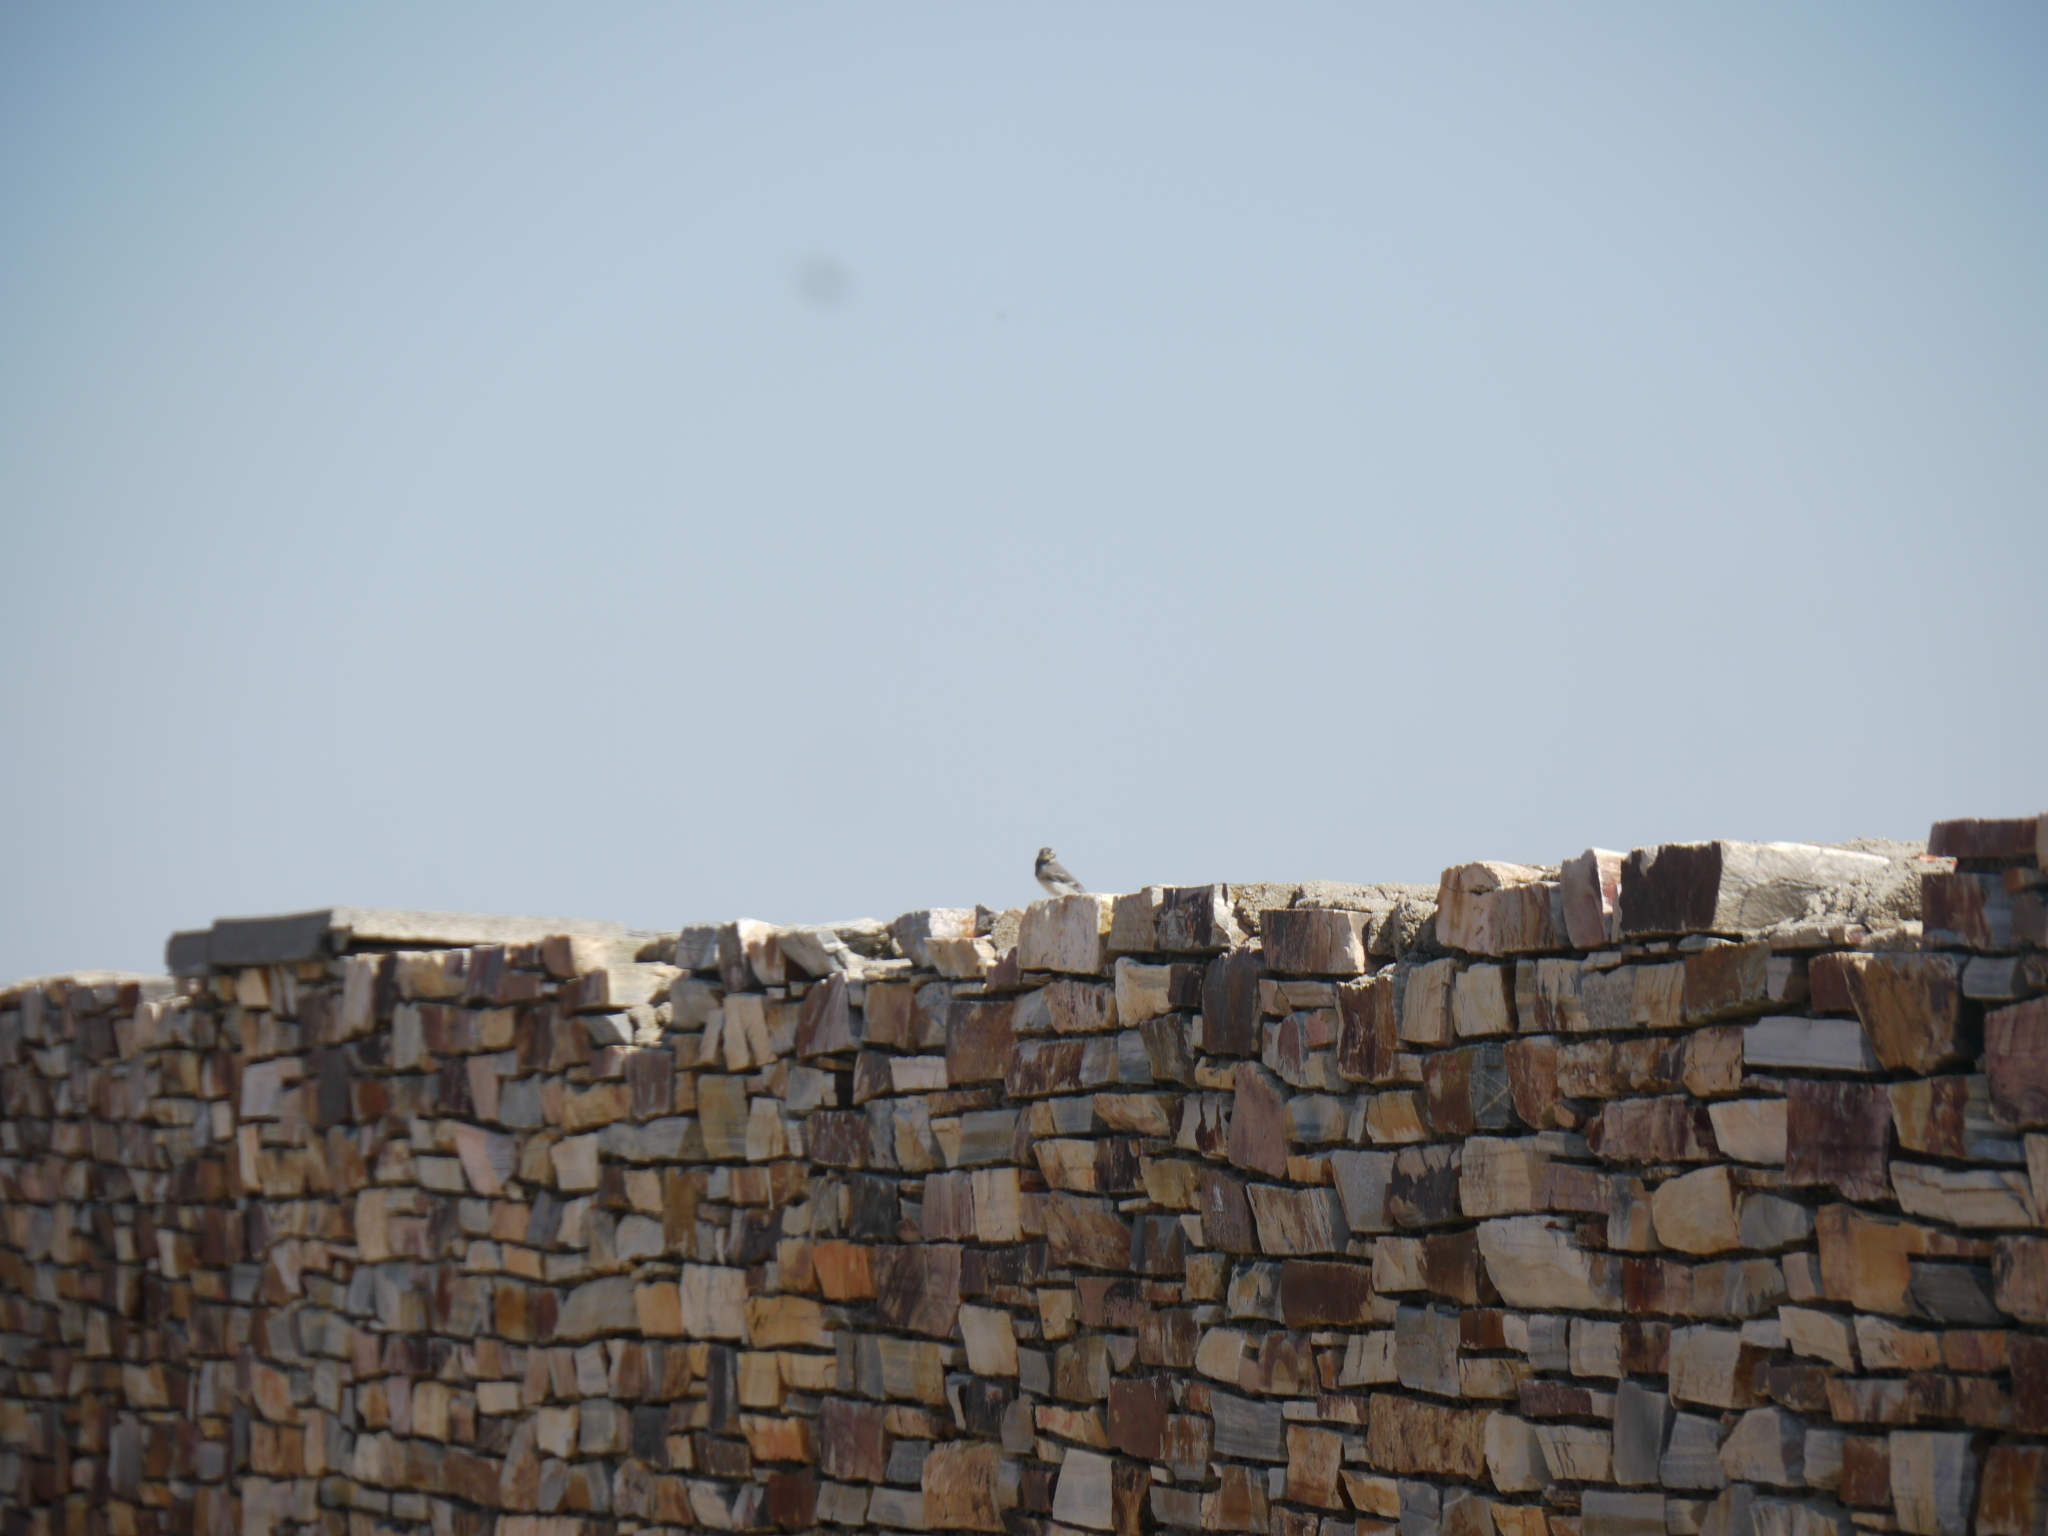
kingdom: Animalia
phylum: Chordata
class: Aves
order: Passeriformes
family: Motacillidae
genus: Motacilla
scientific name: Motacilla alba
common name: White wagtail
